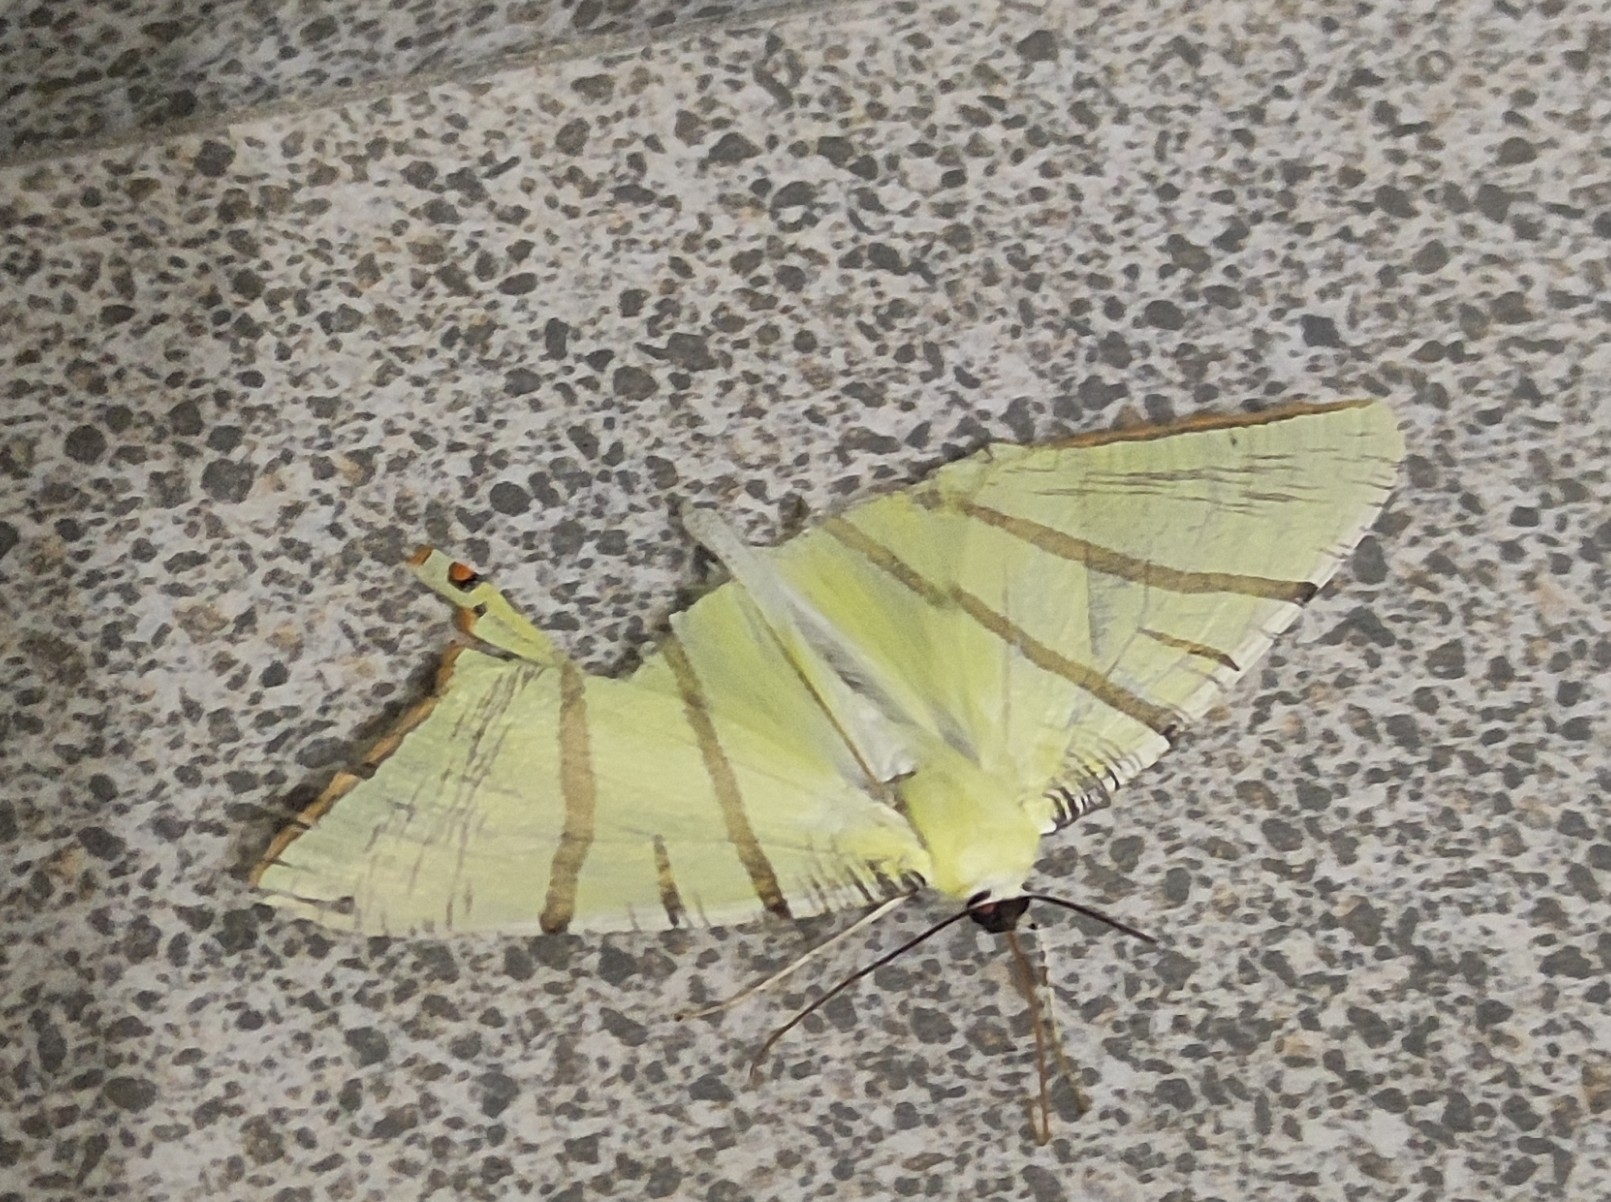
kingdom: Animalia
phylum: Arthropoda
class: Insecta
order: Lepidoptera
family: Geometridae
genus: Ourapteryx
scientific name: Ourapteryx primularis
